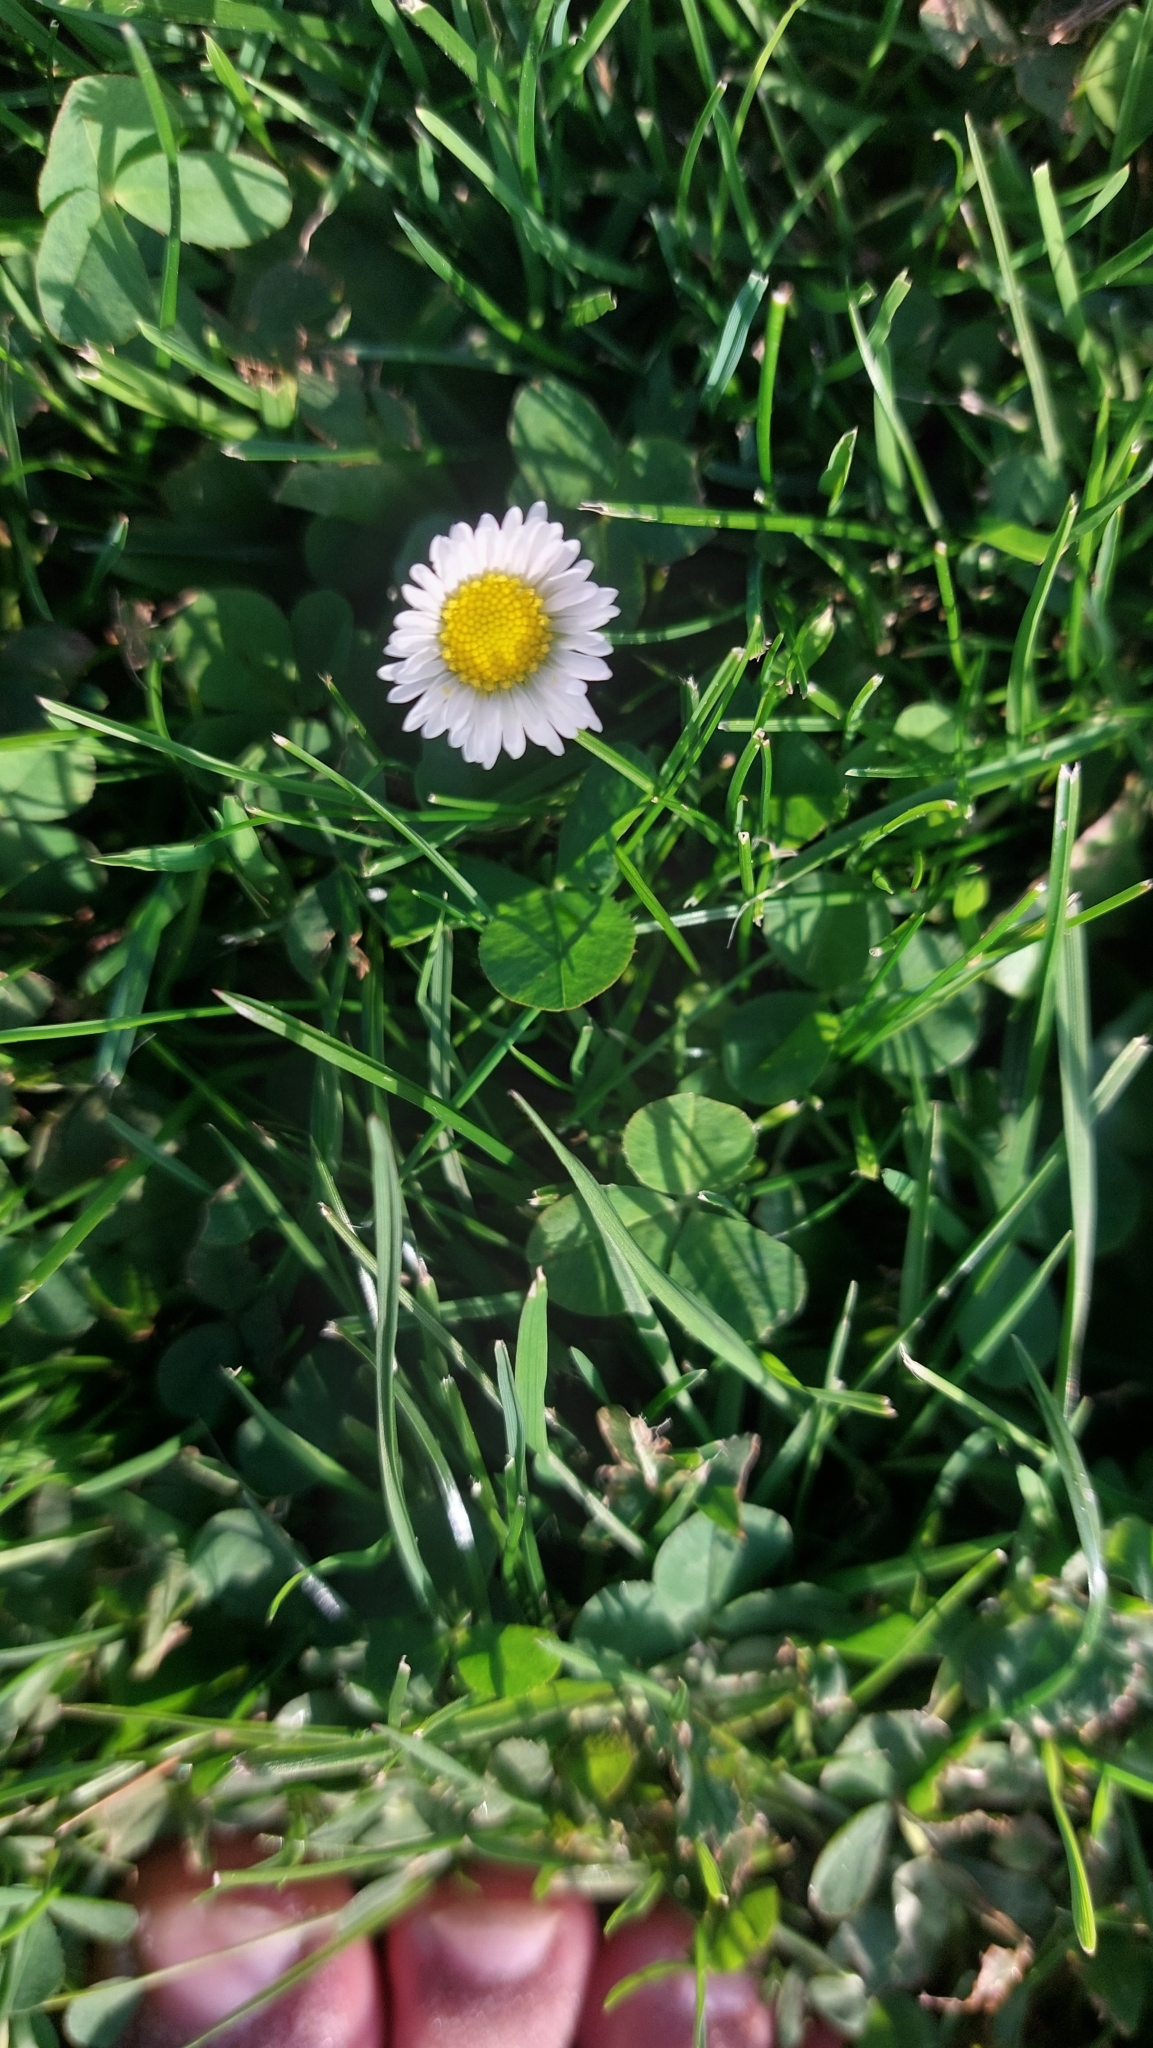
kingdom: Plantae
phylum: Tracheophyta
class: Magnoliopsida
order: Asterales
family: Asteraceae
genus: Bellis
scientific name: Bellis perennis
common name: Lawndaisy
